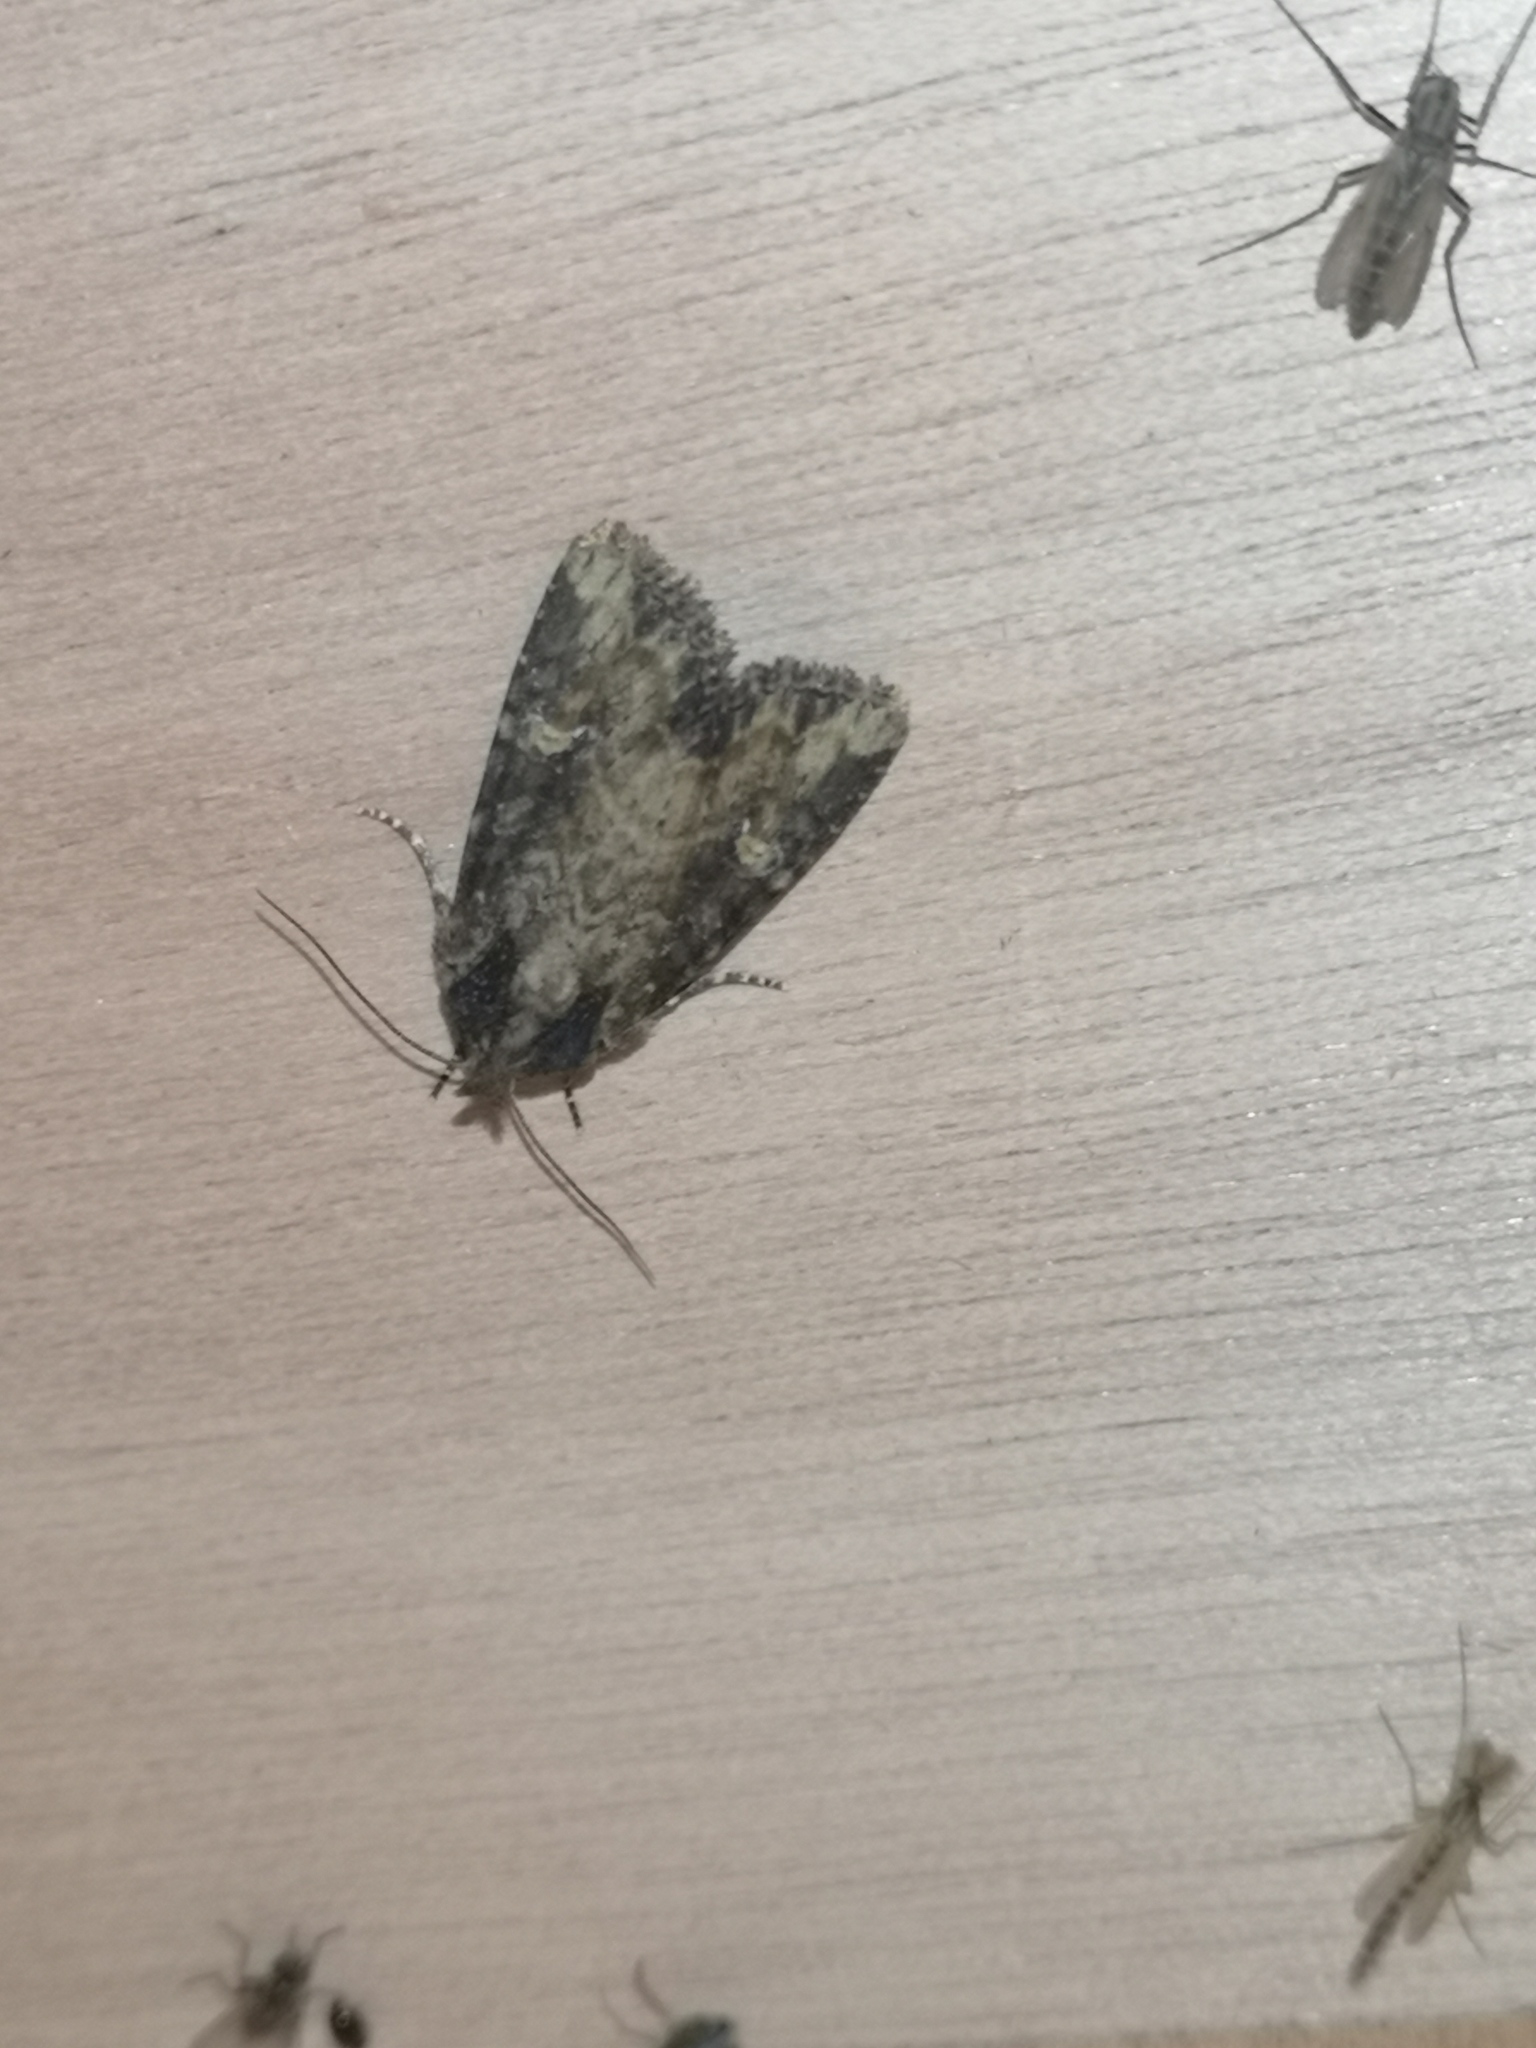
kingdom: Animalia
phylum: Arthropoda
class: Insecta
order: Lepidoptera
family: Noctuidae
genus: Mesapamea
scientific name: Mesapamea
